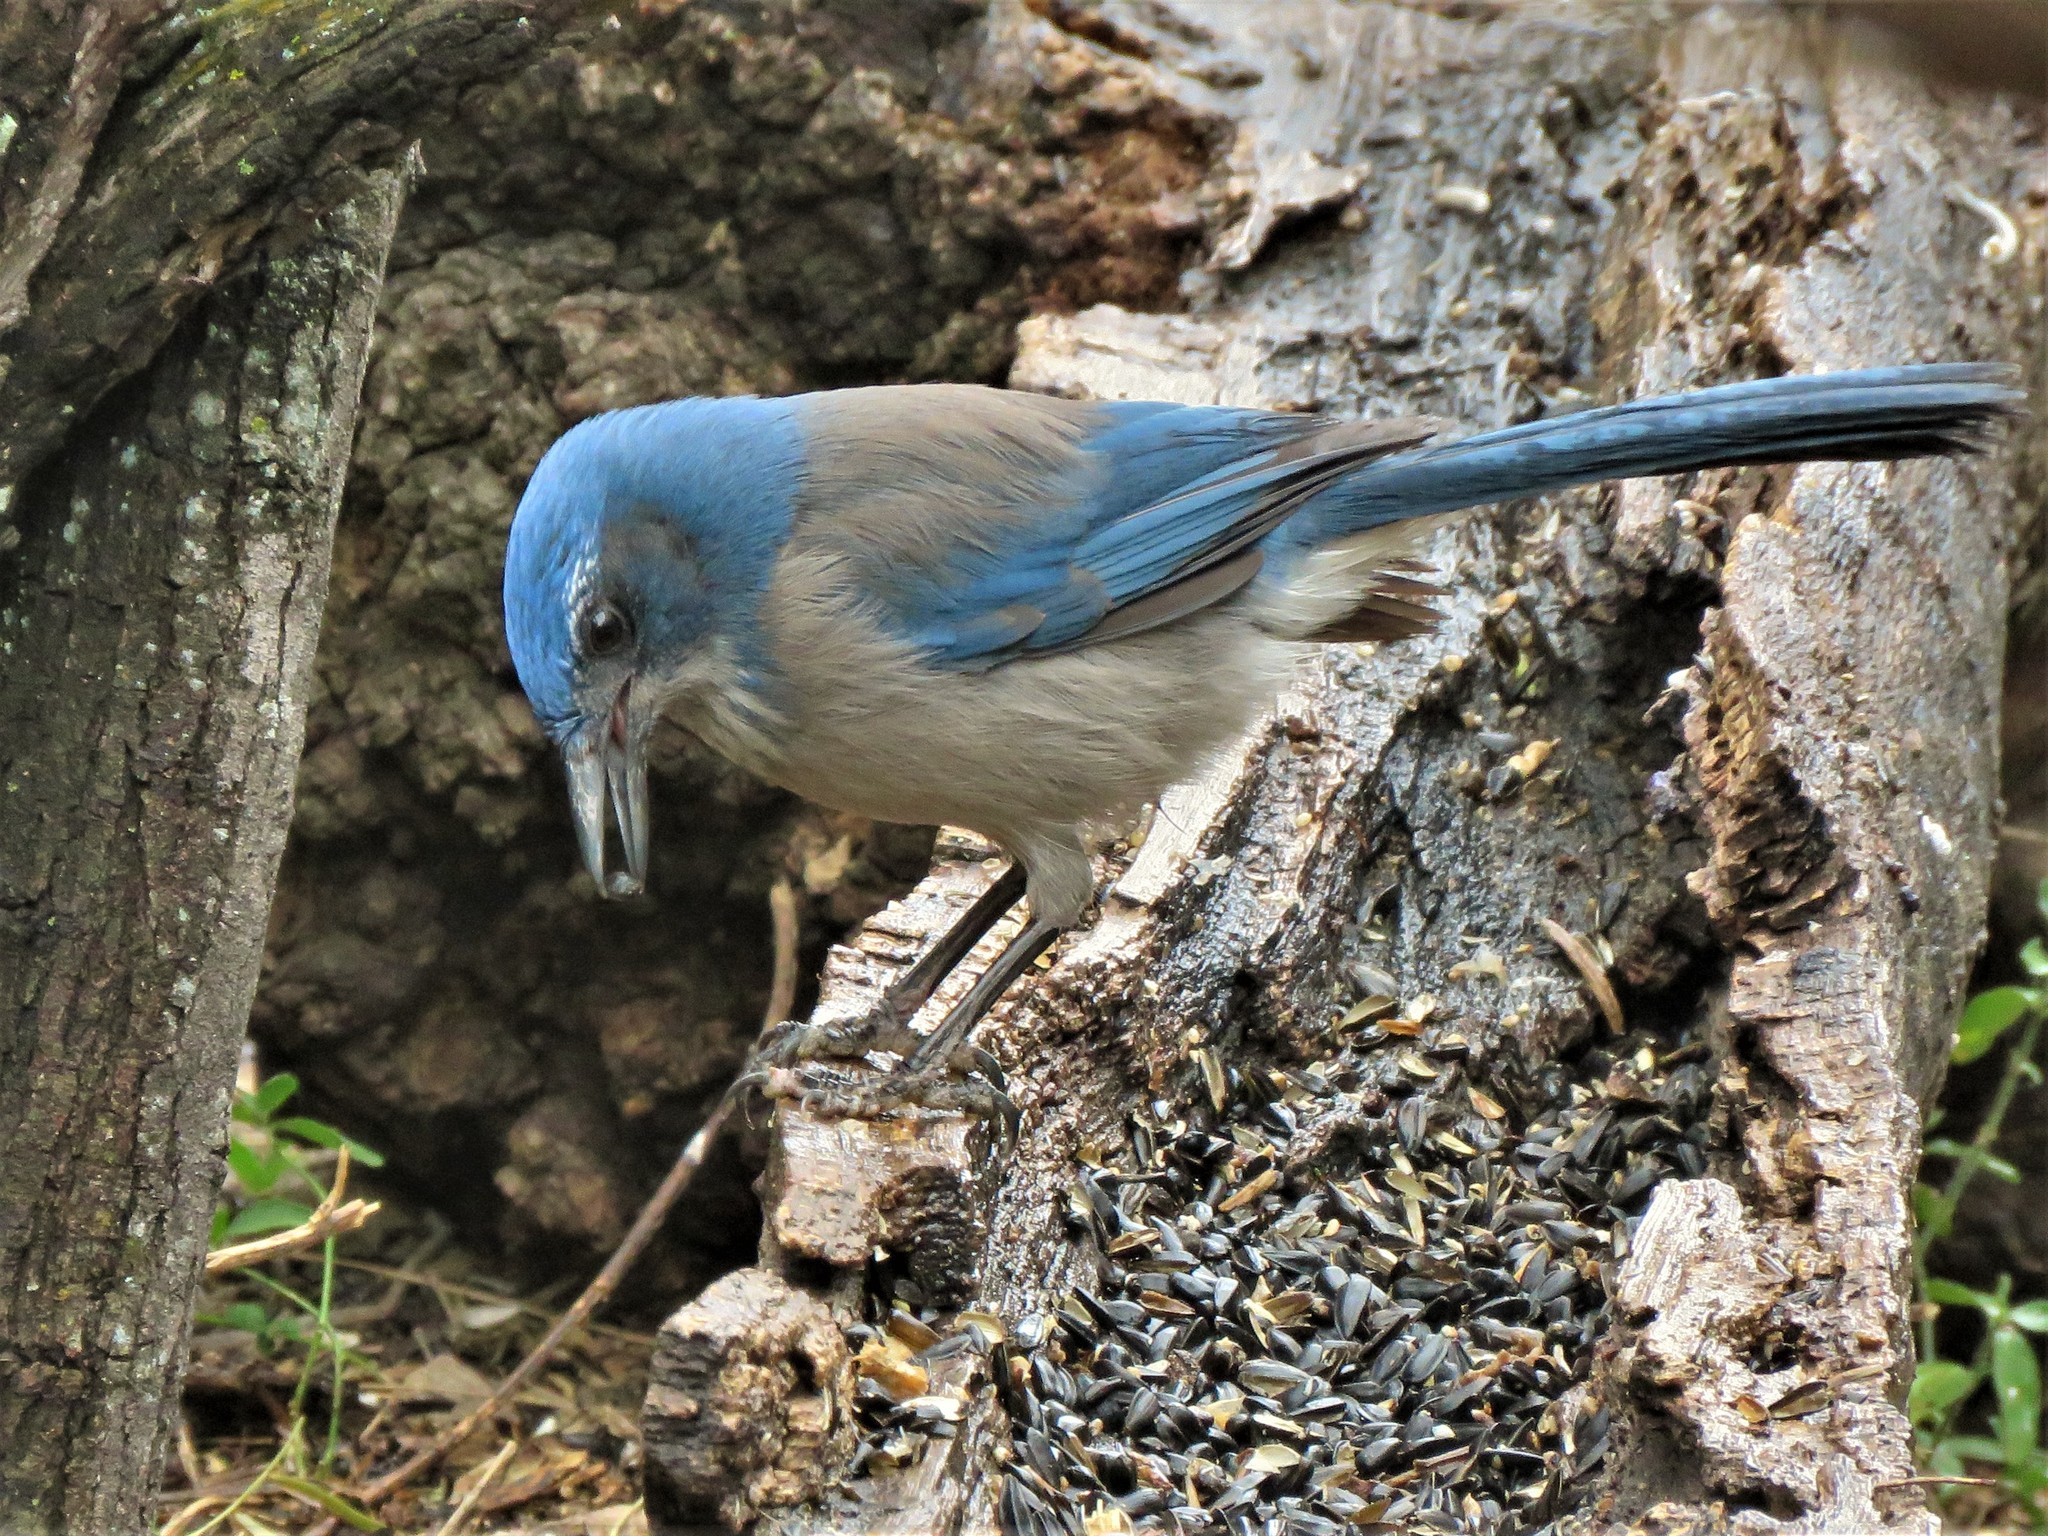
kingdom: Animalia
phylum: Chordata
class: Aves
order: Passeriformes
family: Corvidae
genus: Aphelocoma
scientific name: Aphelocoma woodhouseii
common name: Woodhouse's scrub-jay
